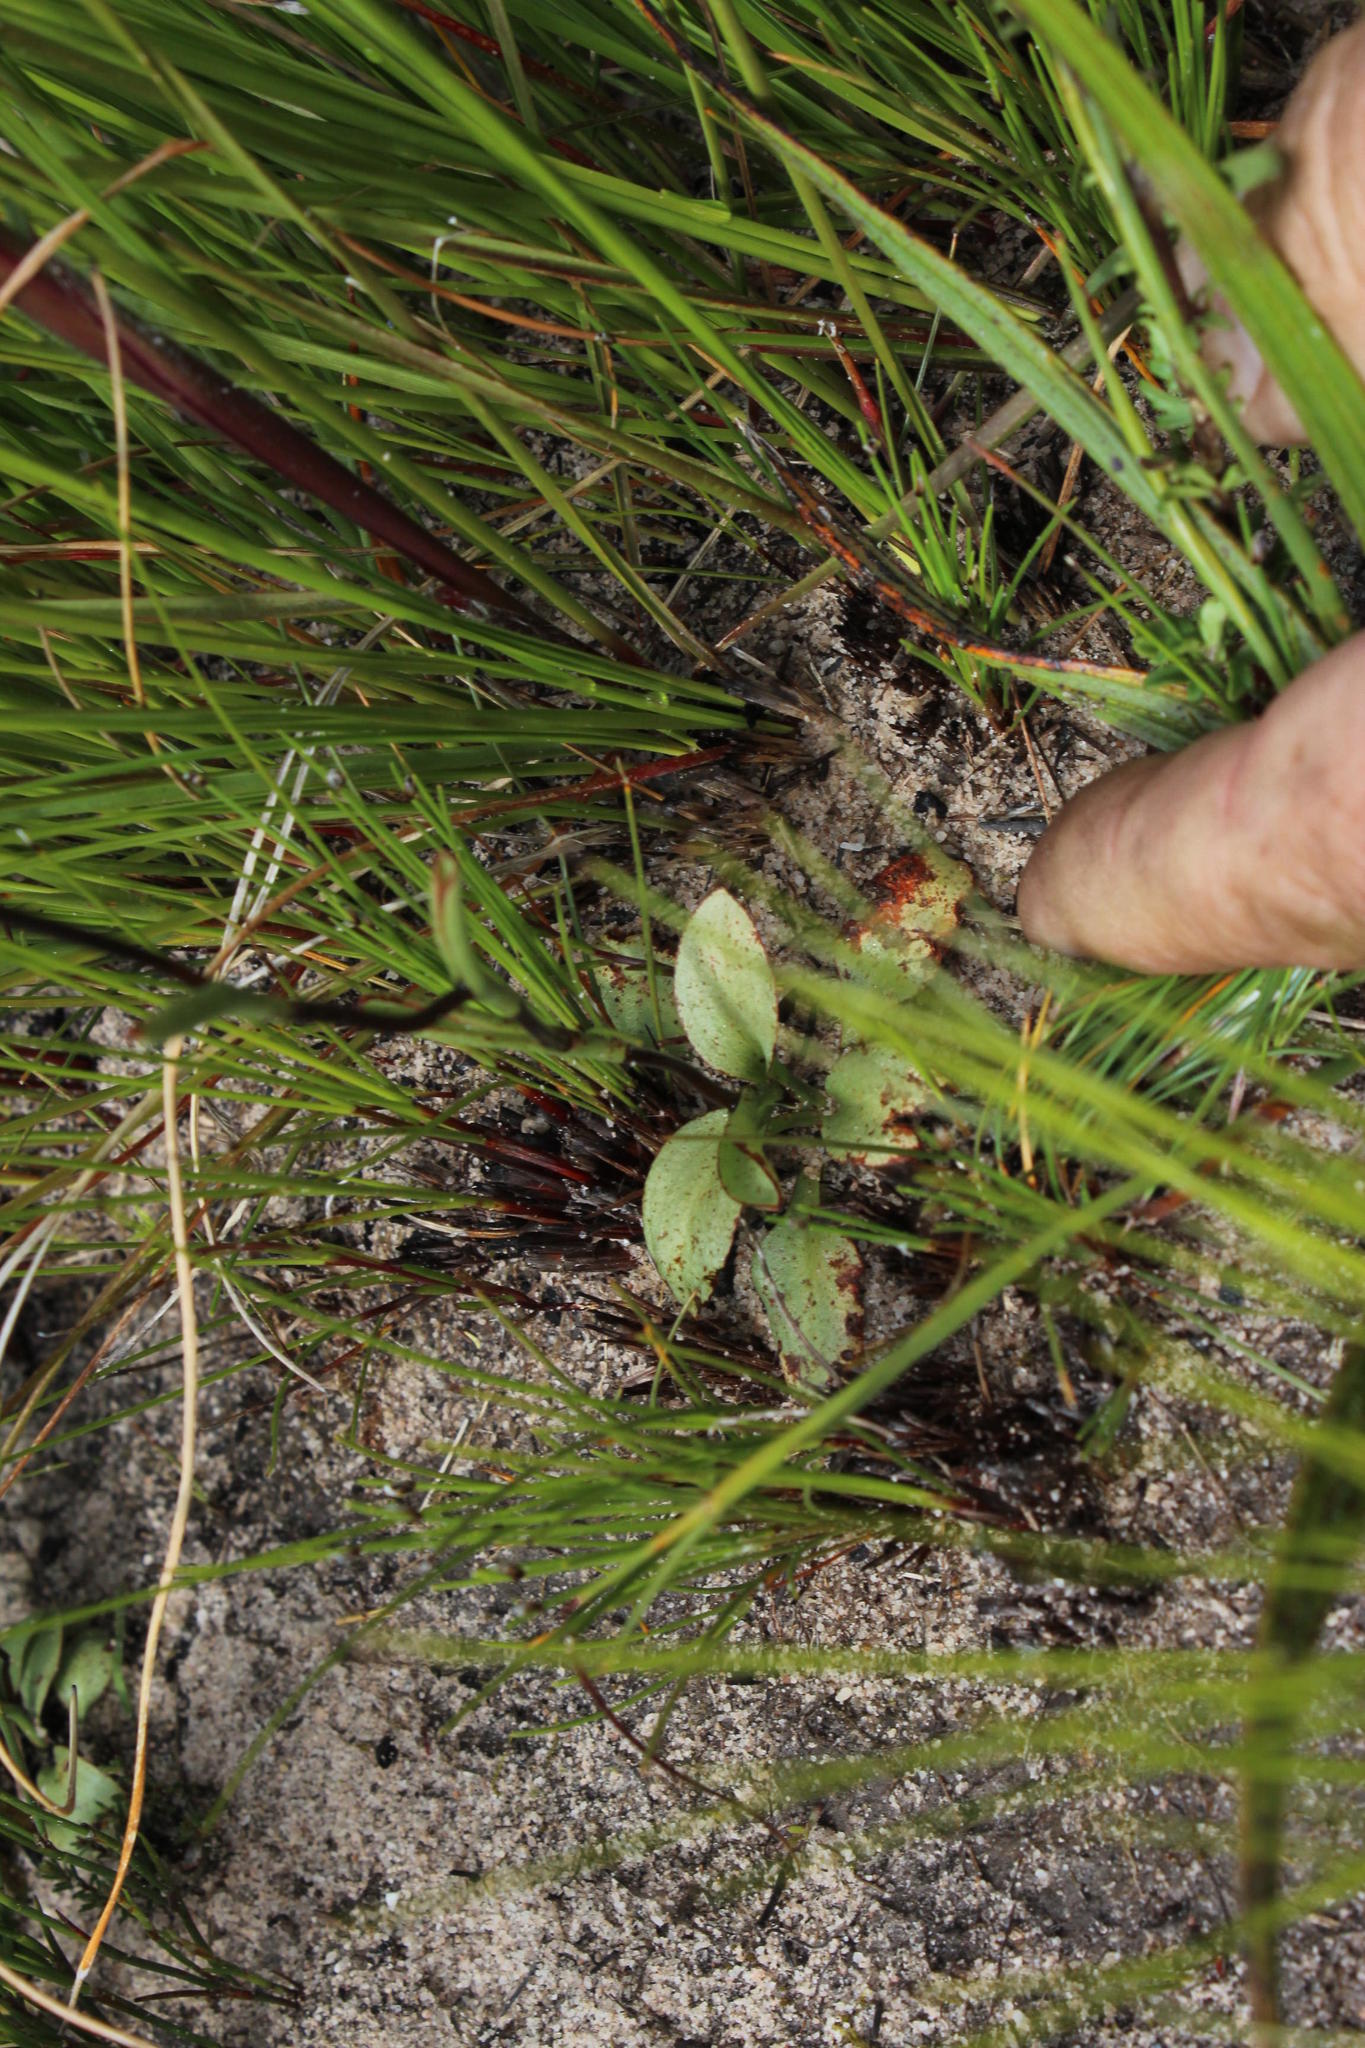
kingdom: Plantae
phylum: Tracheophyta
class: Liliopsida
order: Asparagales
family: Orchidaceae
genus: Disa
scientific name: Disa flexuosa
